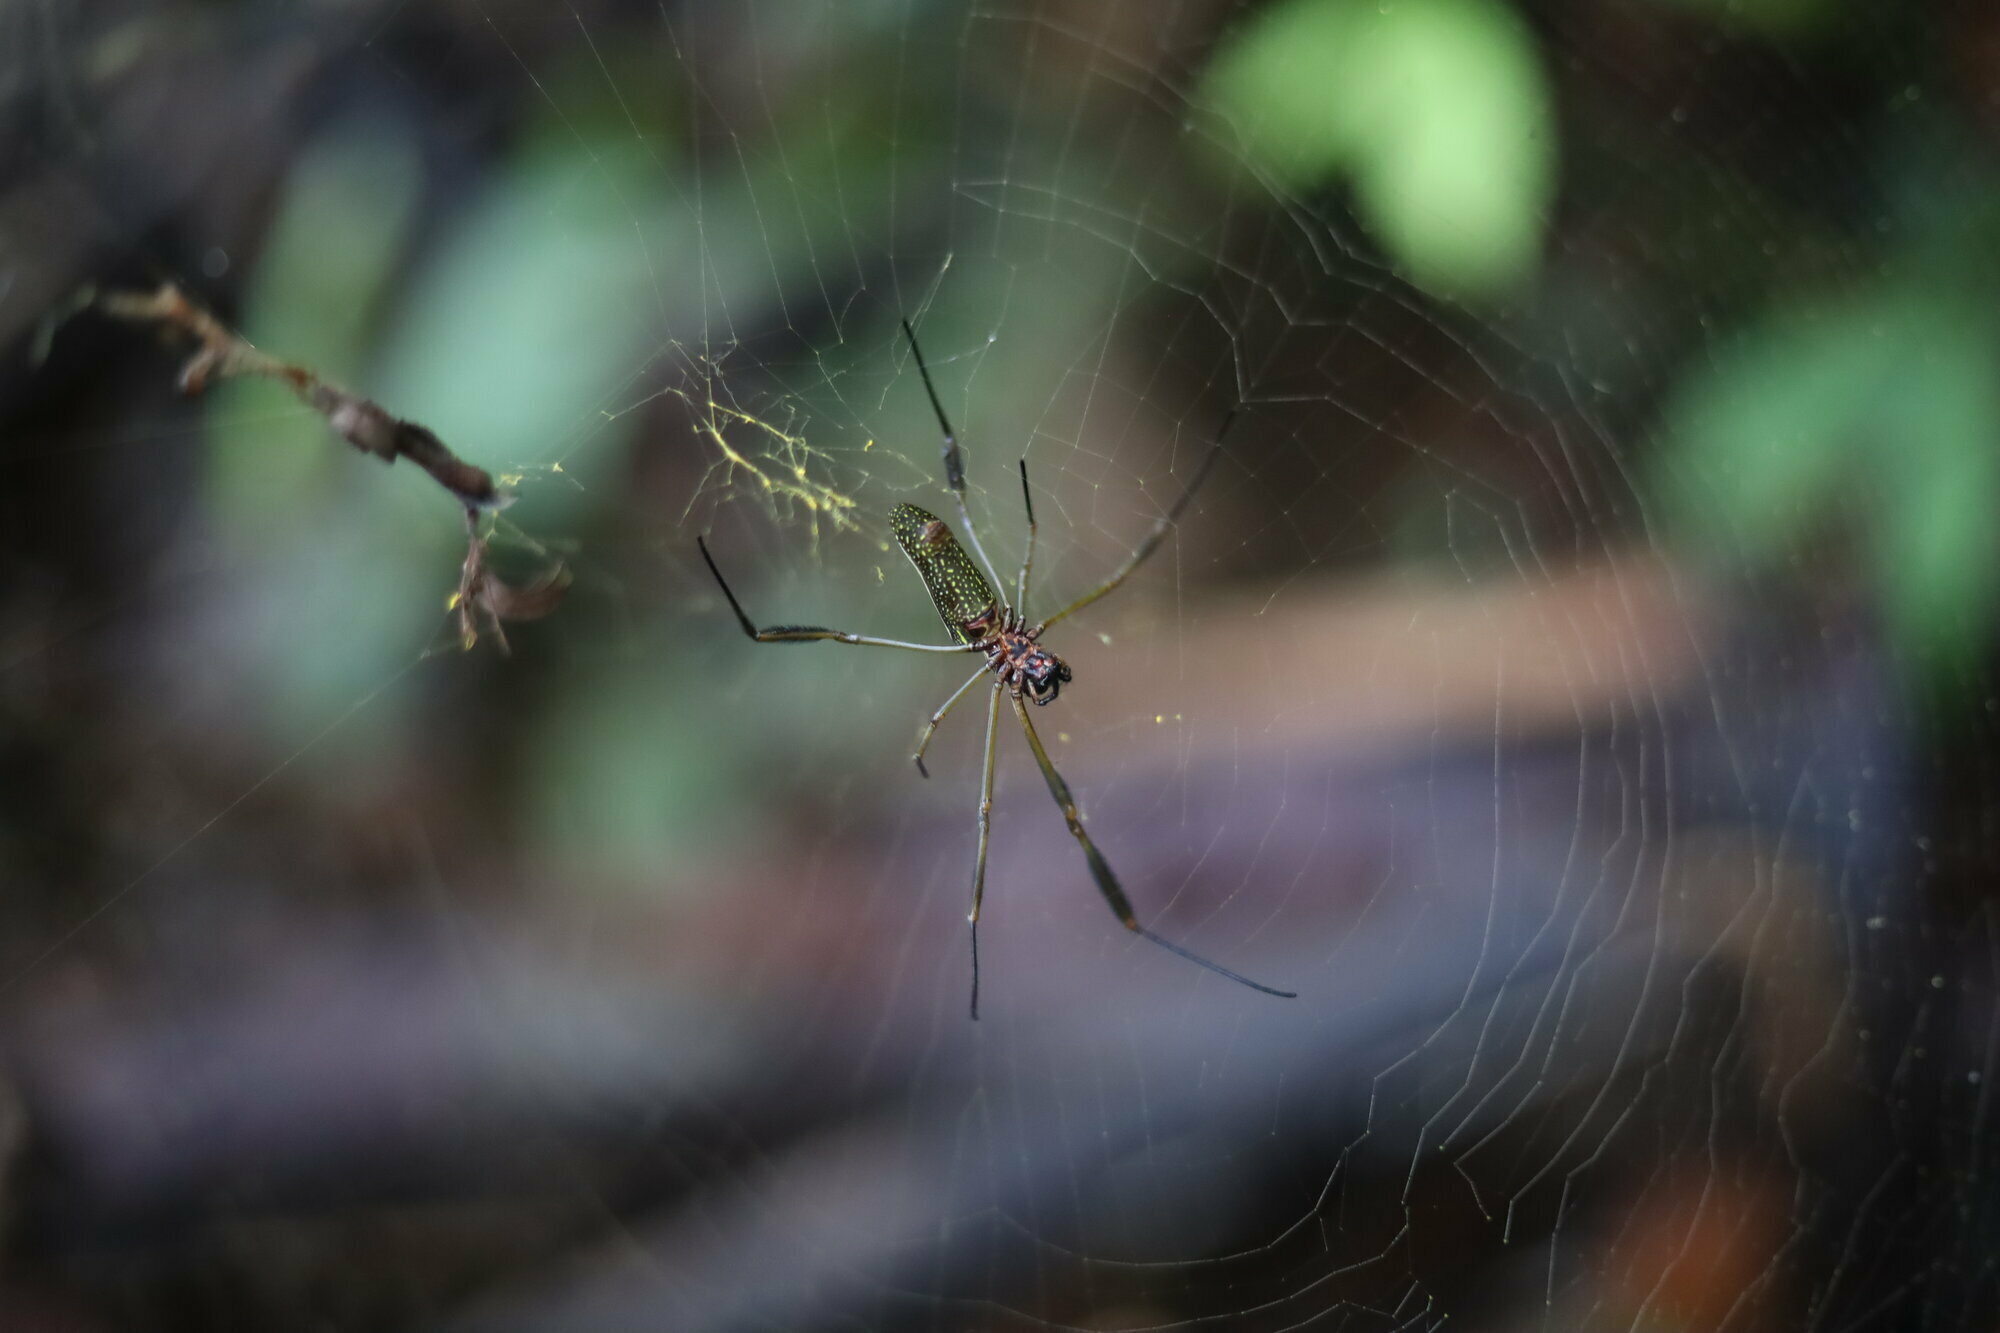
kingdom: Animalia
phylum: Arthropoda
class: Arachnida
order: Araneae
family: Araneidae
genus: Trichonephila
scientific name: Trichonephila clavipes
